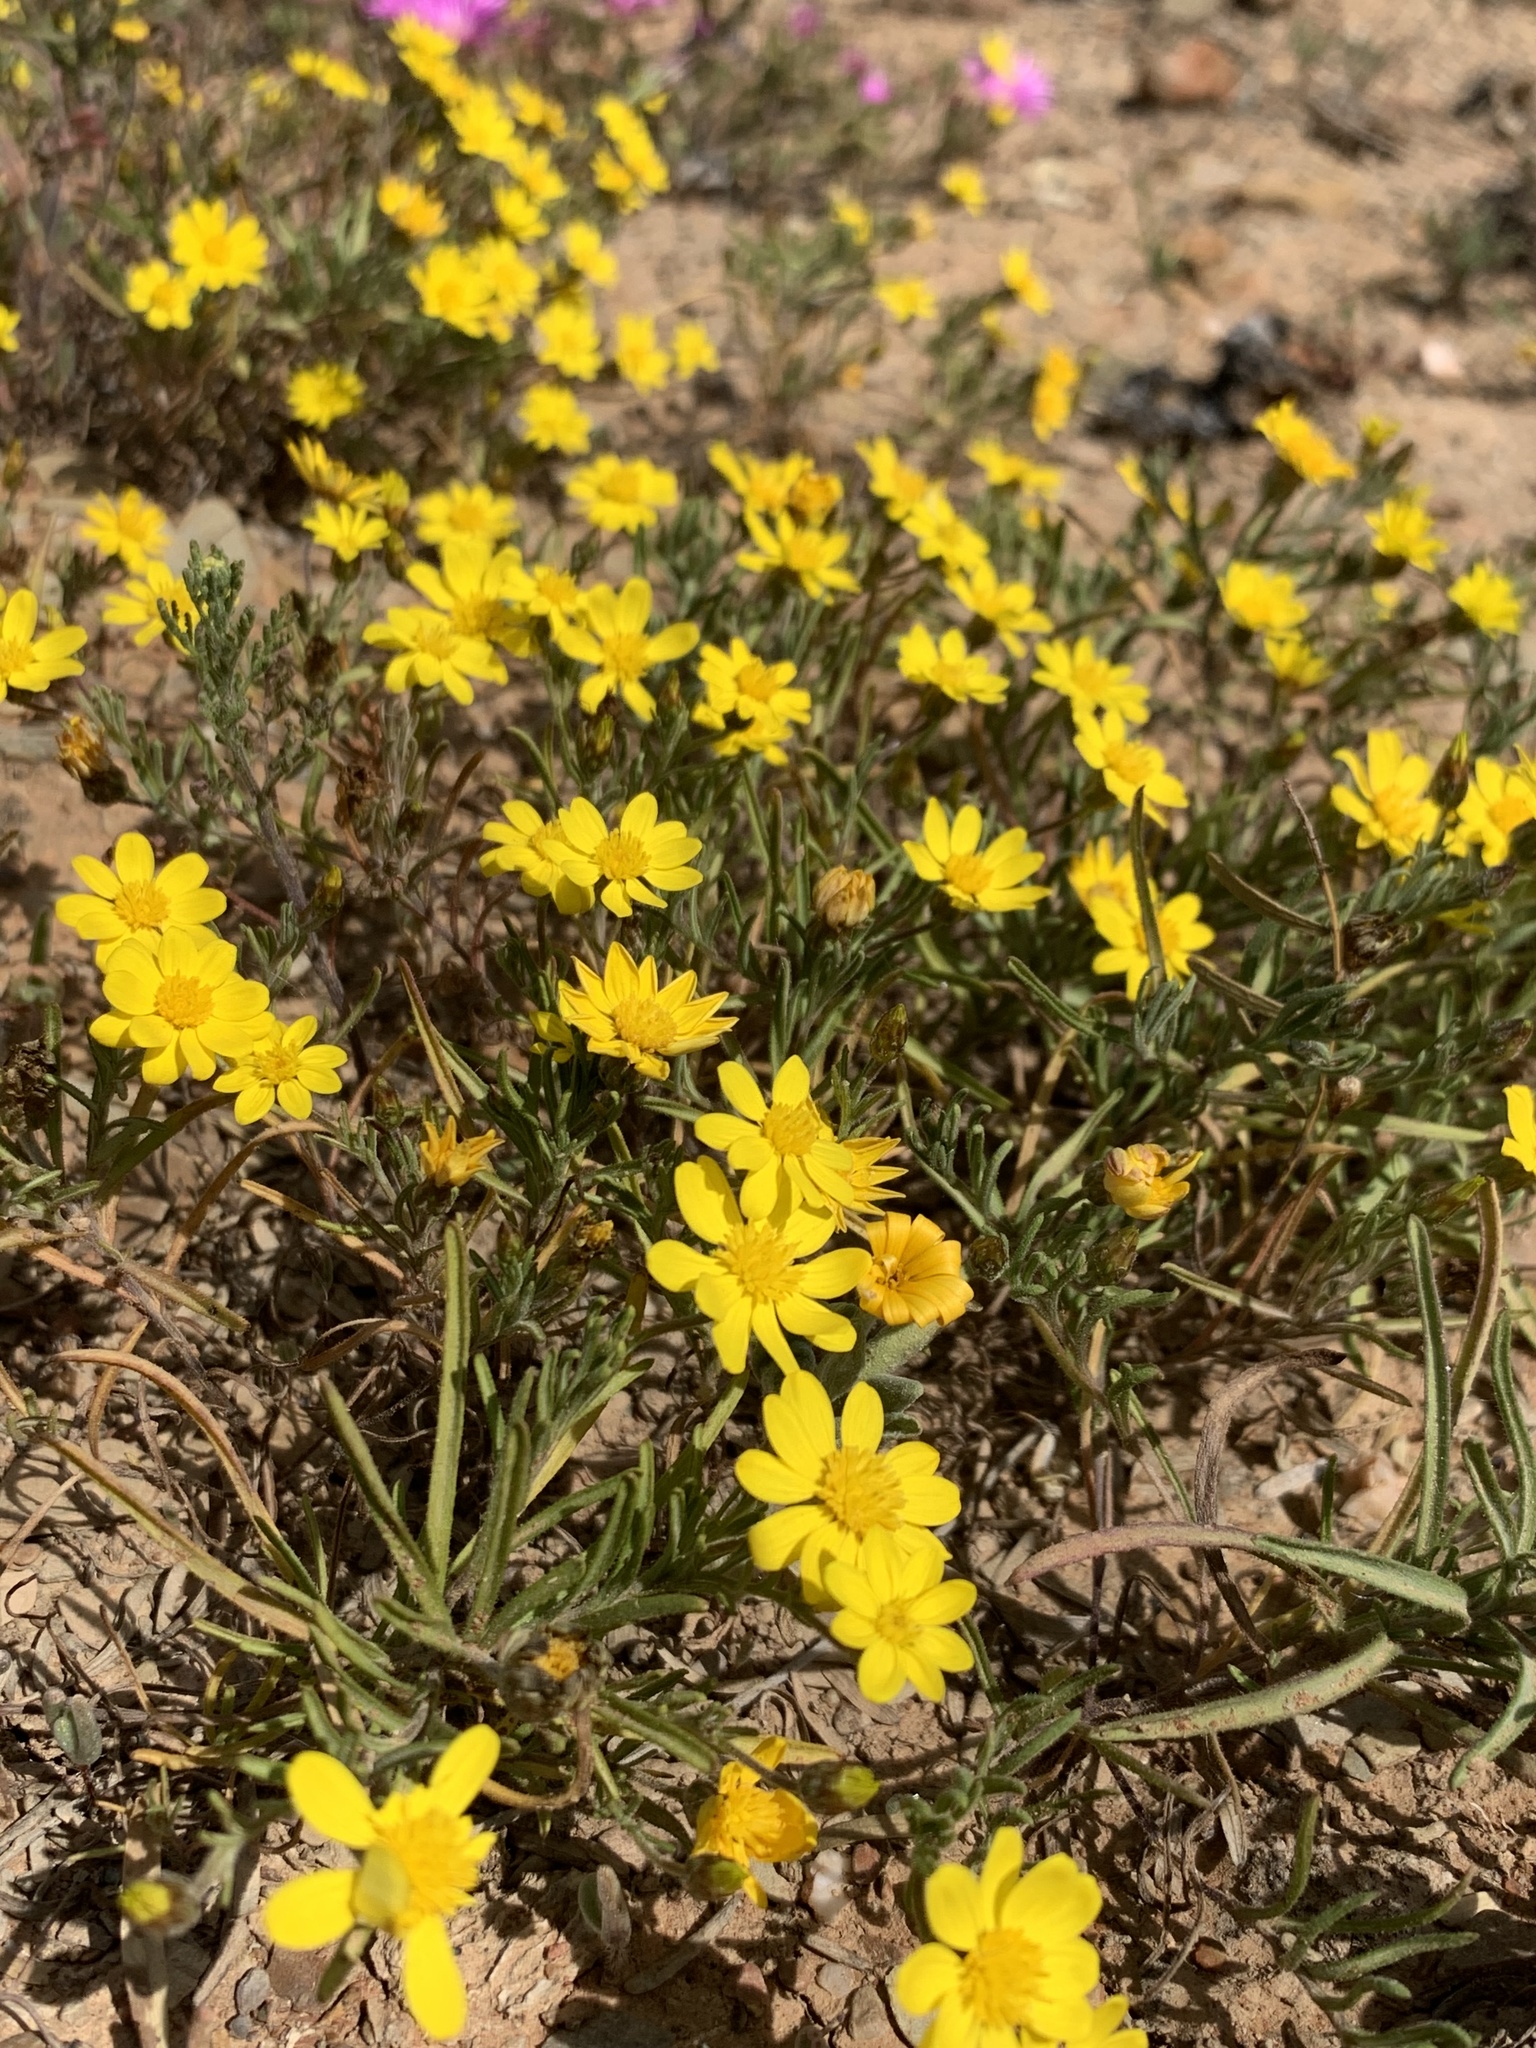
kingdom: Plantae
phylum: Tracheophyta
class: Magnoliopsida
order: Asterales
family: Asteraceae
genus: Rhynchopsidium
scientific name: Rhynchopsidium pumilum
